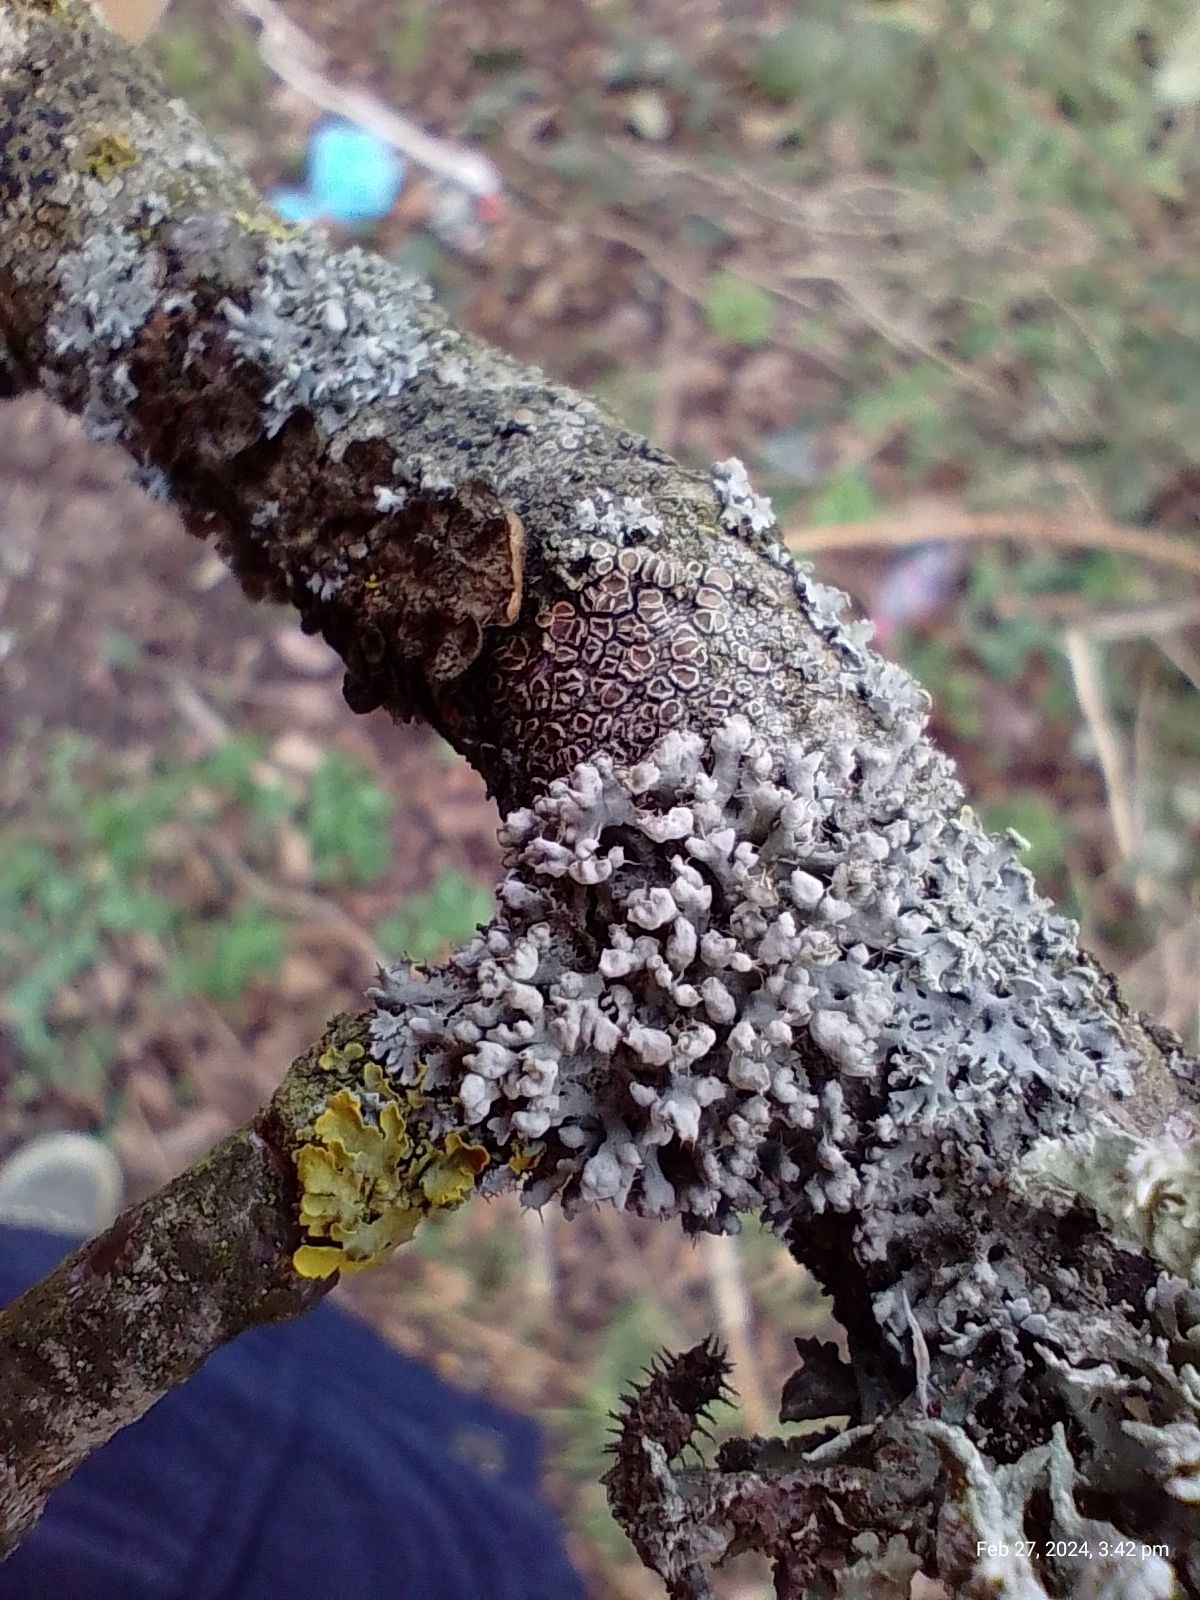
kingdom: Fungi
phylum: Ascomycota
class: Lecanoromycetes
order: Caliciales
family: Physciaceae
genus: Physcia
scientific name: Physcia adscendens
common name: Hooded rosette lichen
